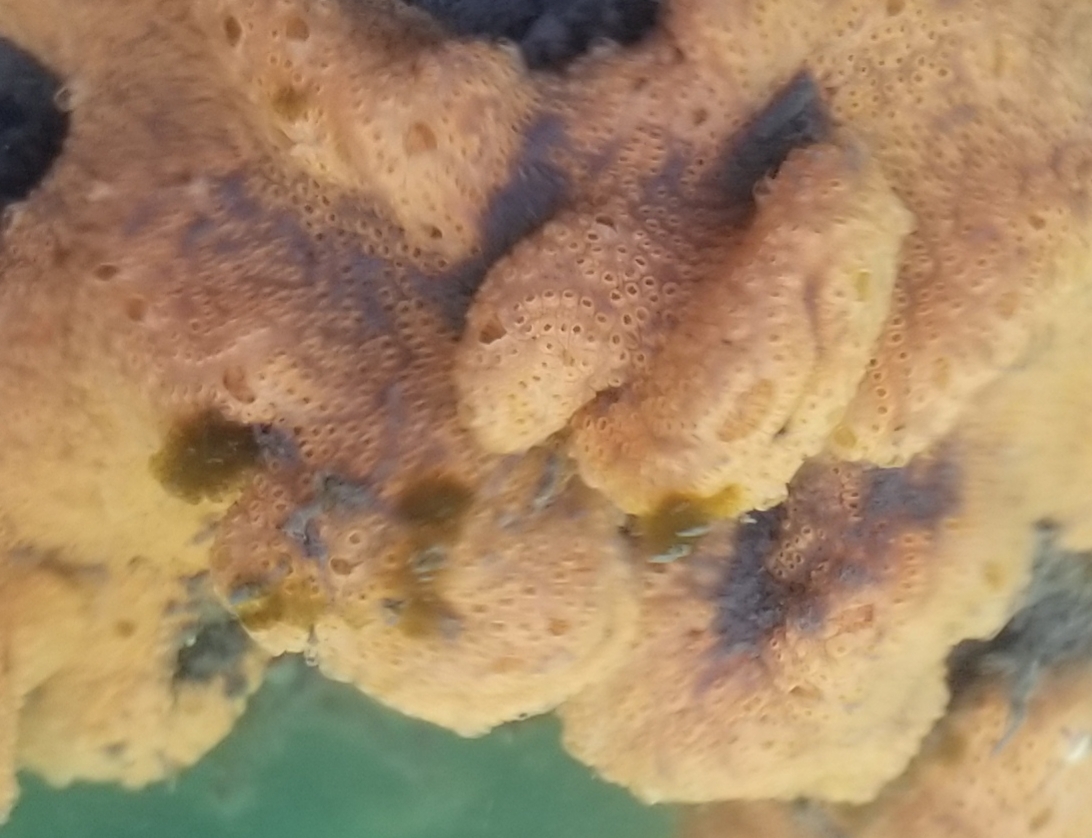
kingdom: Animalia
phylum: Chordata
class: Ascidiacea
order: Stolidobranchia
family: Styelidae
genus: Botrylloides
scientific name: Botrylloides violaceus
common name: Colonial sea squirt
